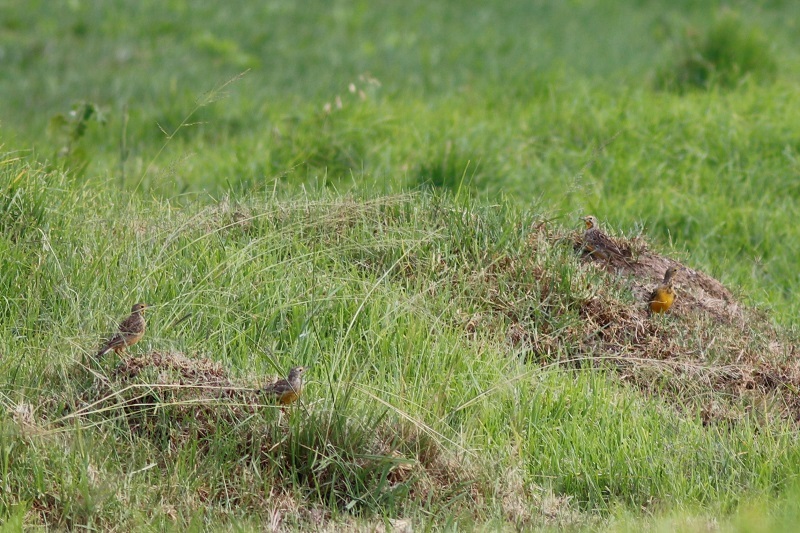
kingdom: Animalia
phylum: Chordata
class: Aves
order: Passeriformes
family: Motacillidae
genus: Macronyx
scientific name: Macronyx capensis
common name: Cape longclaw
